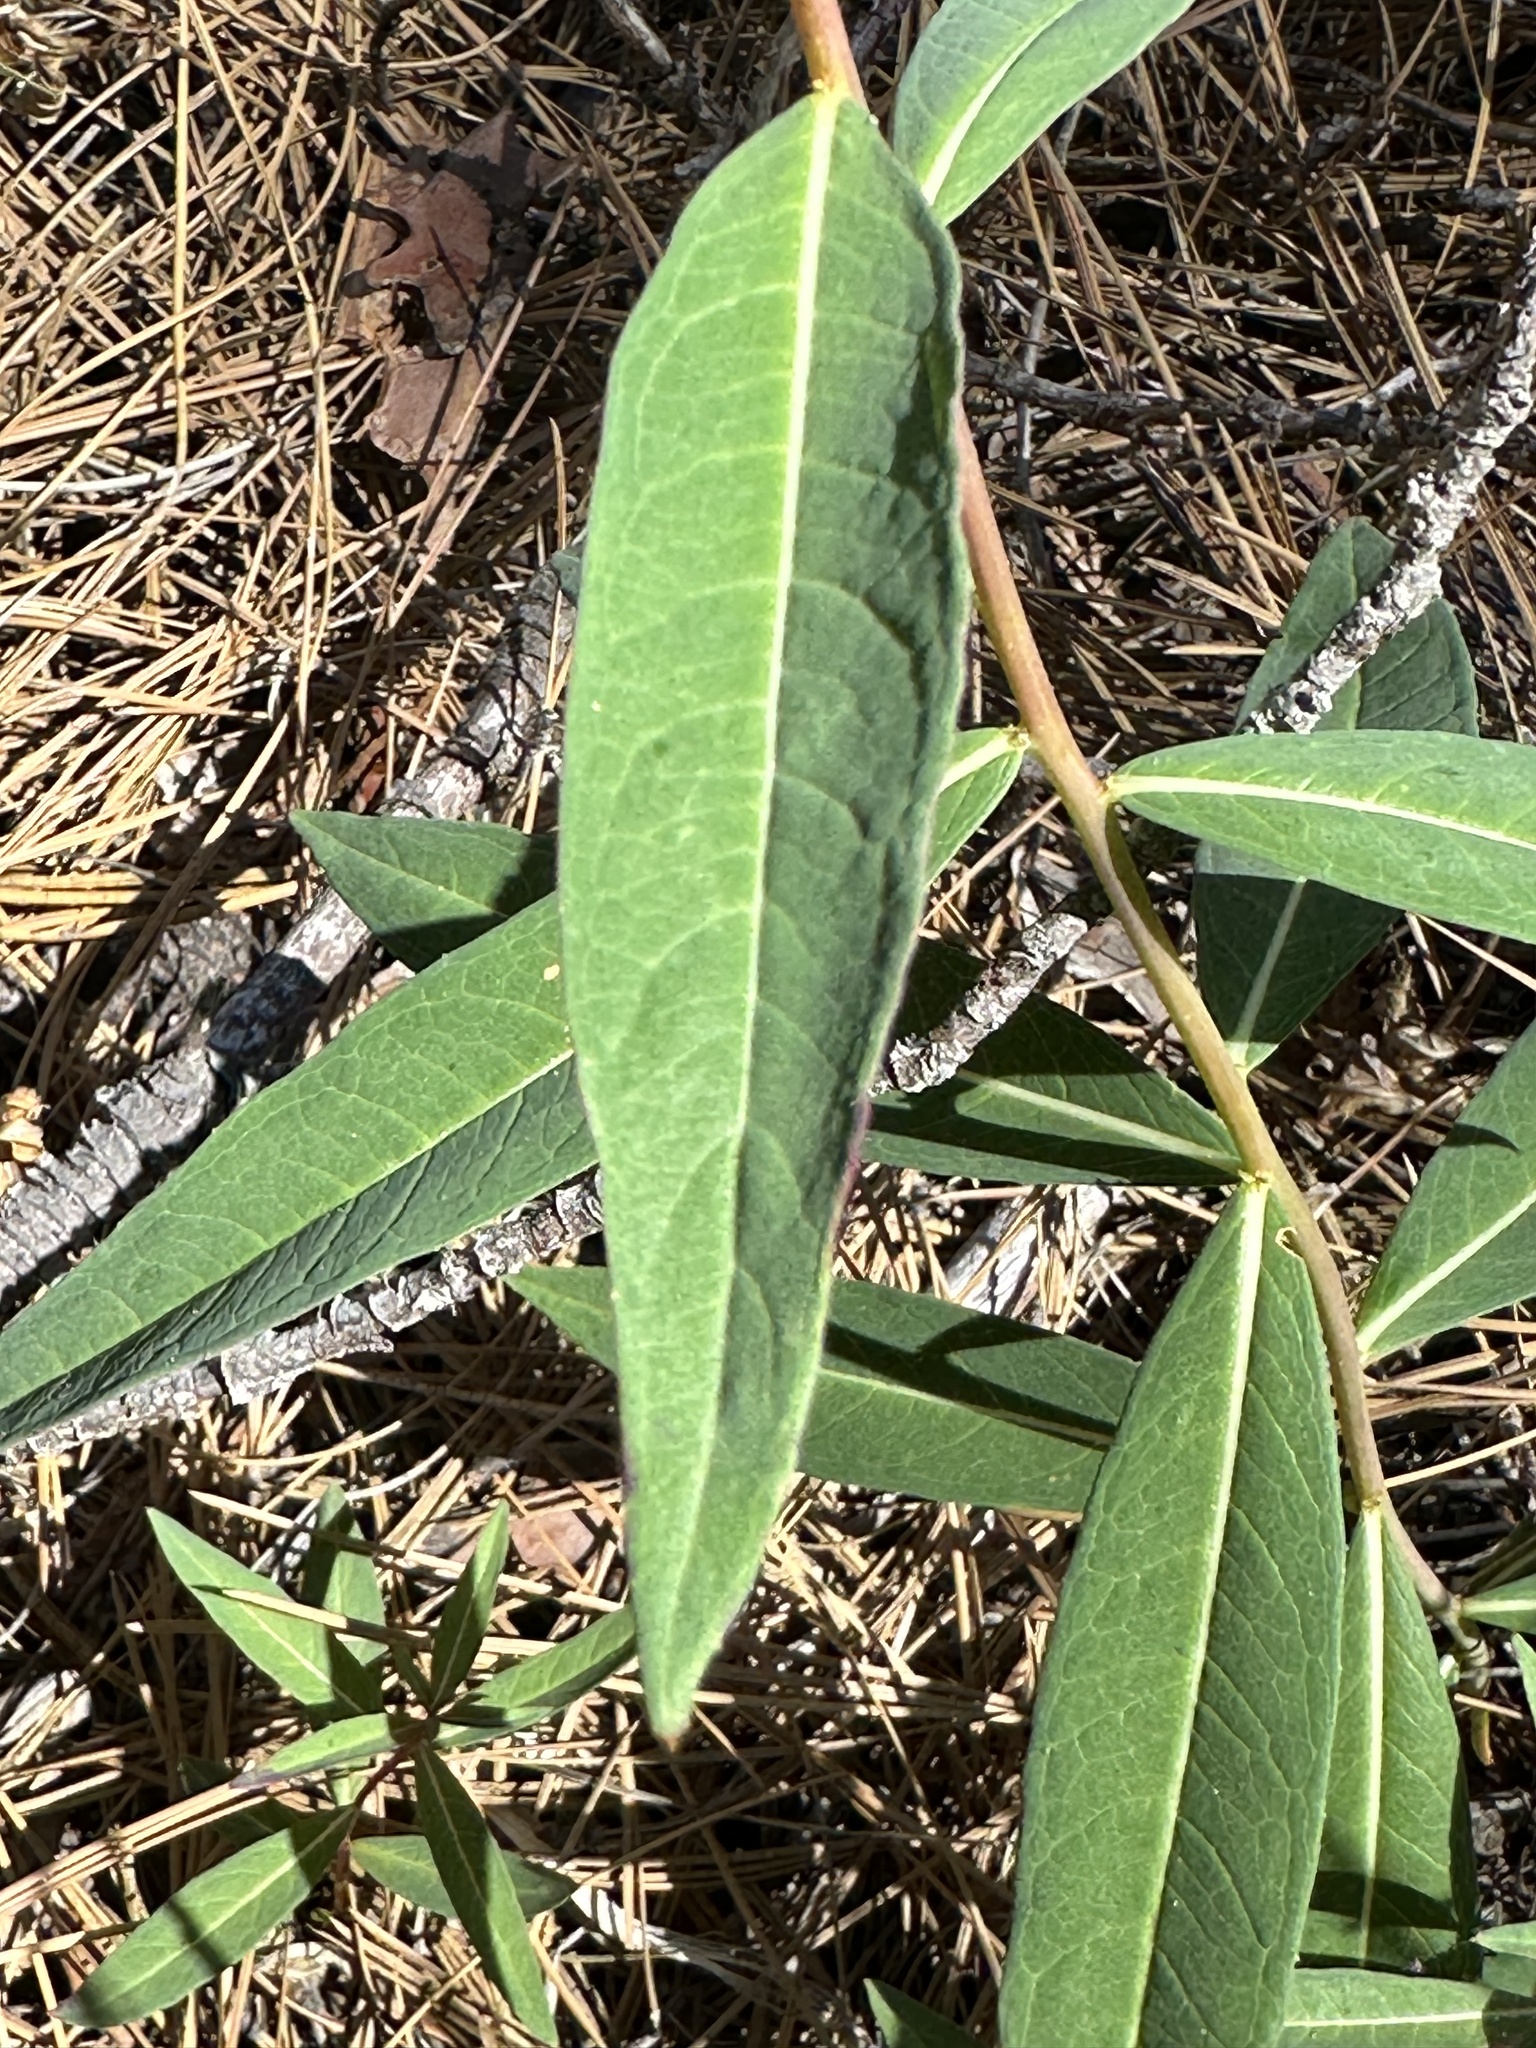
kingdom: Plantae
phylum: Tracheophyta
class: Magnoliopsida
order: Myrtales
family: Onagraceae
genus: Chamaenerion
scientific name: Chamaenerion angustifolium
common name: Fireweed
